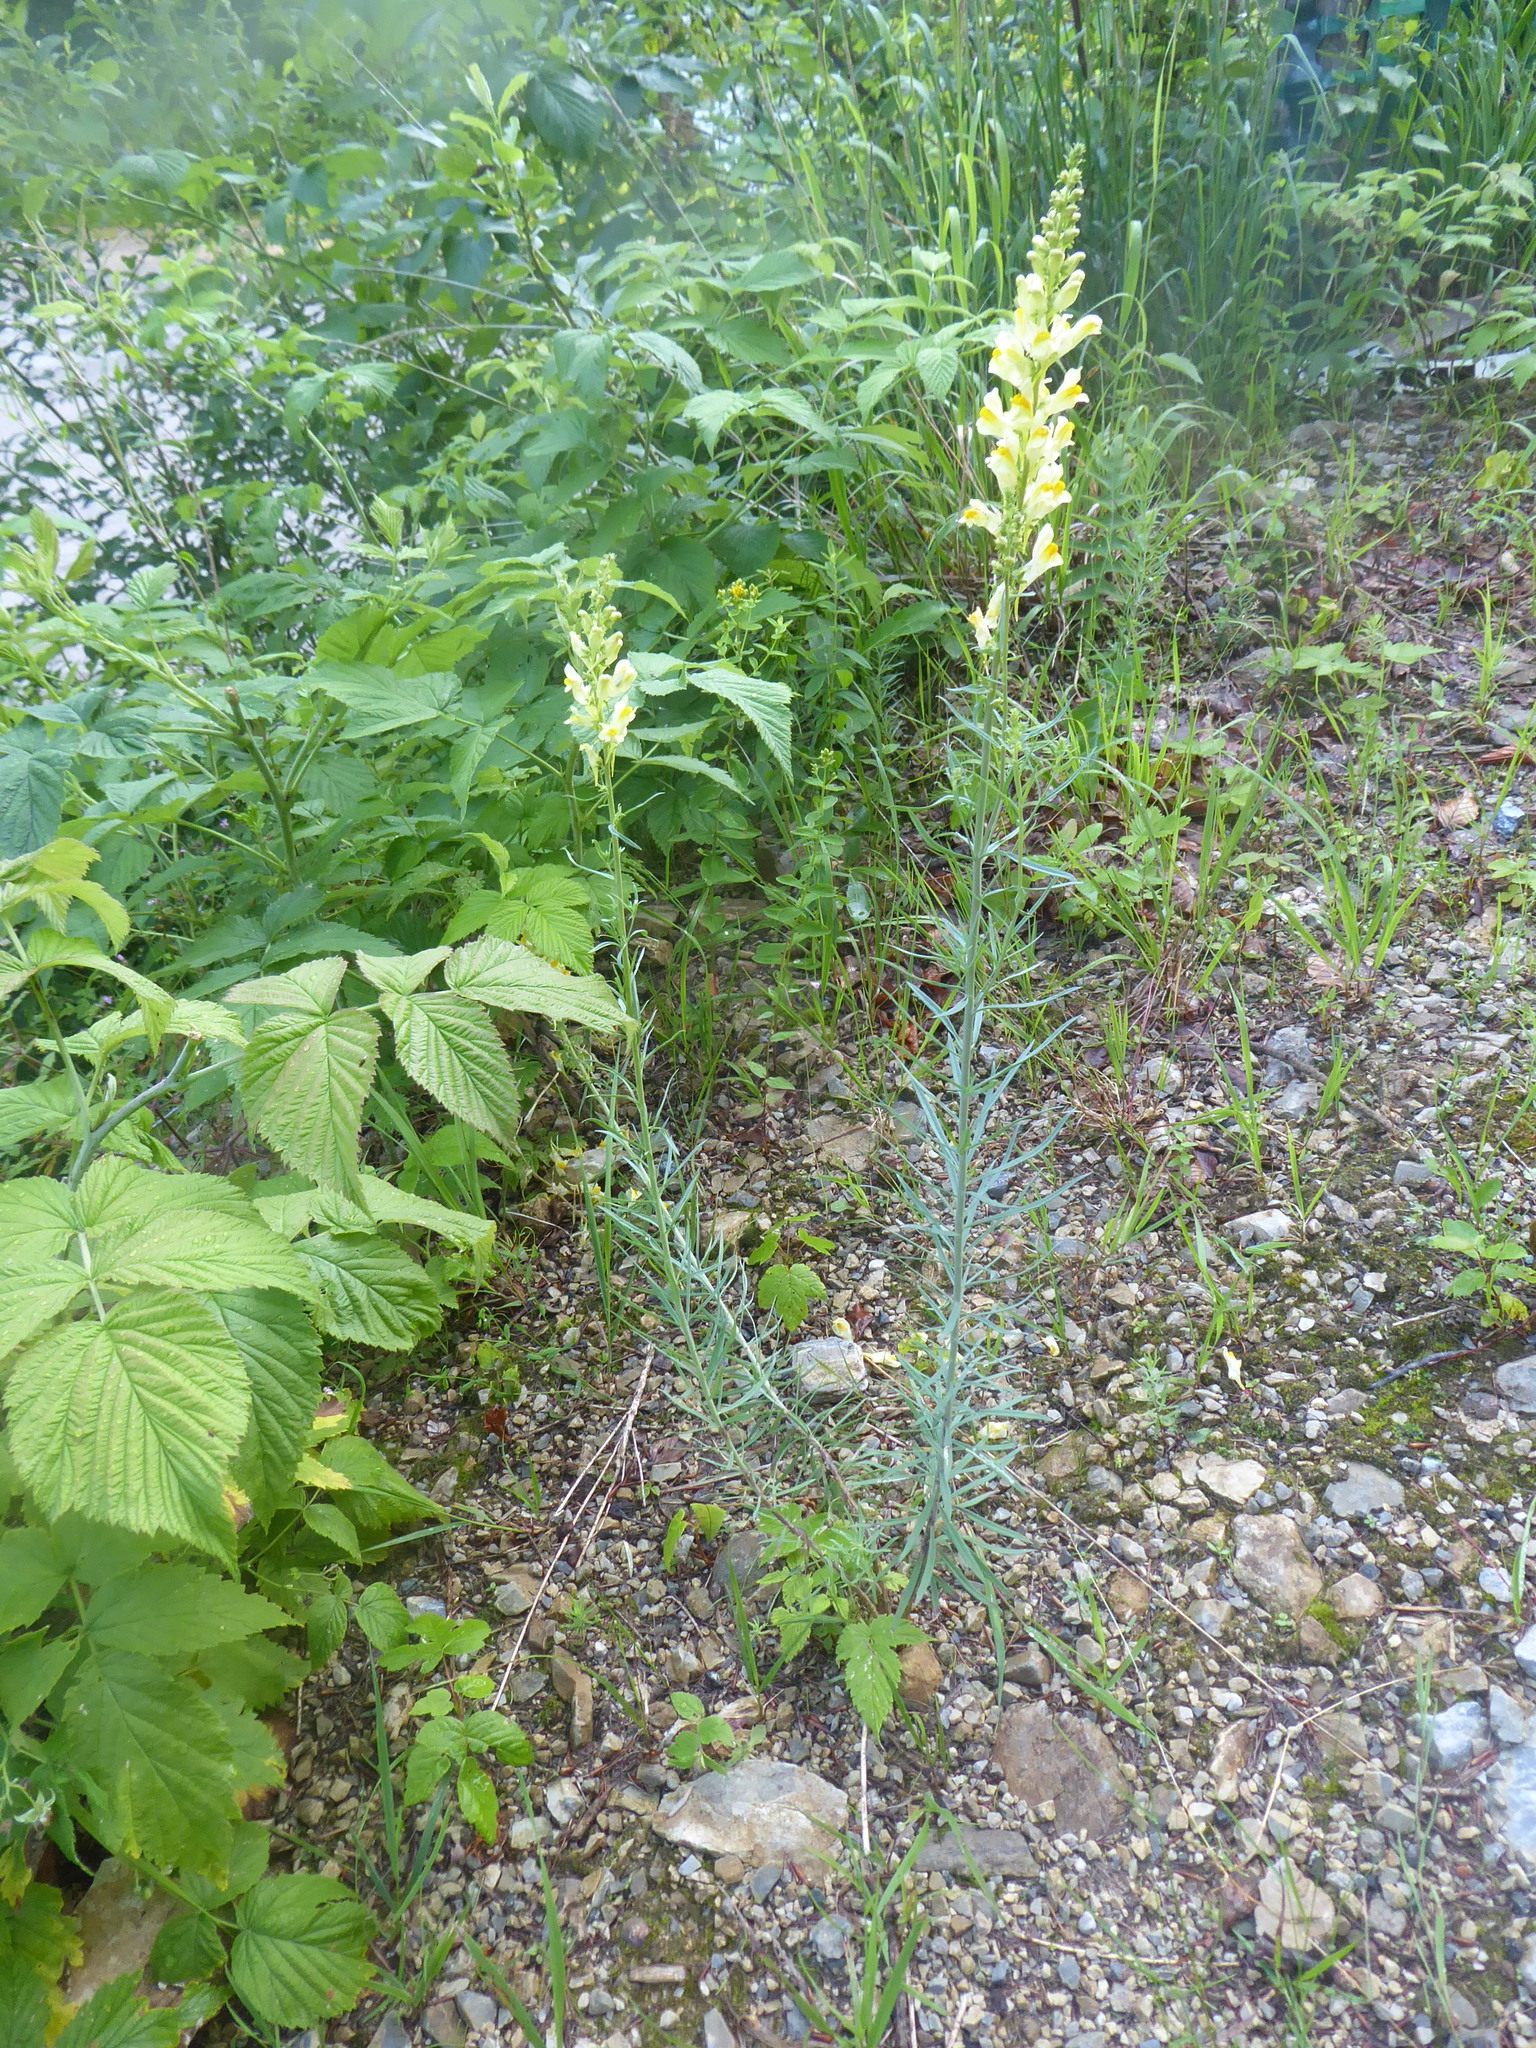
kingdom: Plantae
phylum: Tracheophyta
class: Magnoliopsida
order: Lamiales
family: Plantaginaceae
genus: Linaria
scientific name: Linaria vulgaris
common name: Butter and eggs
